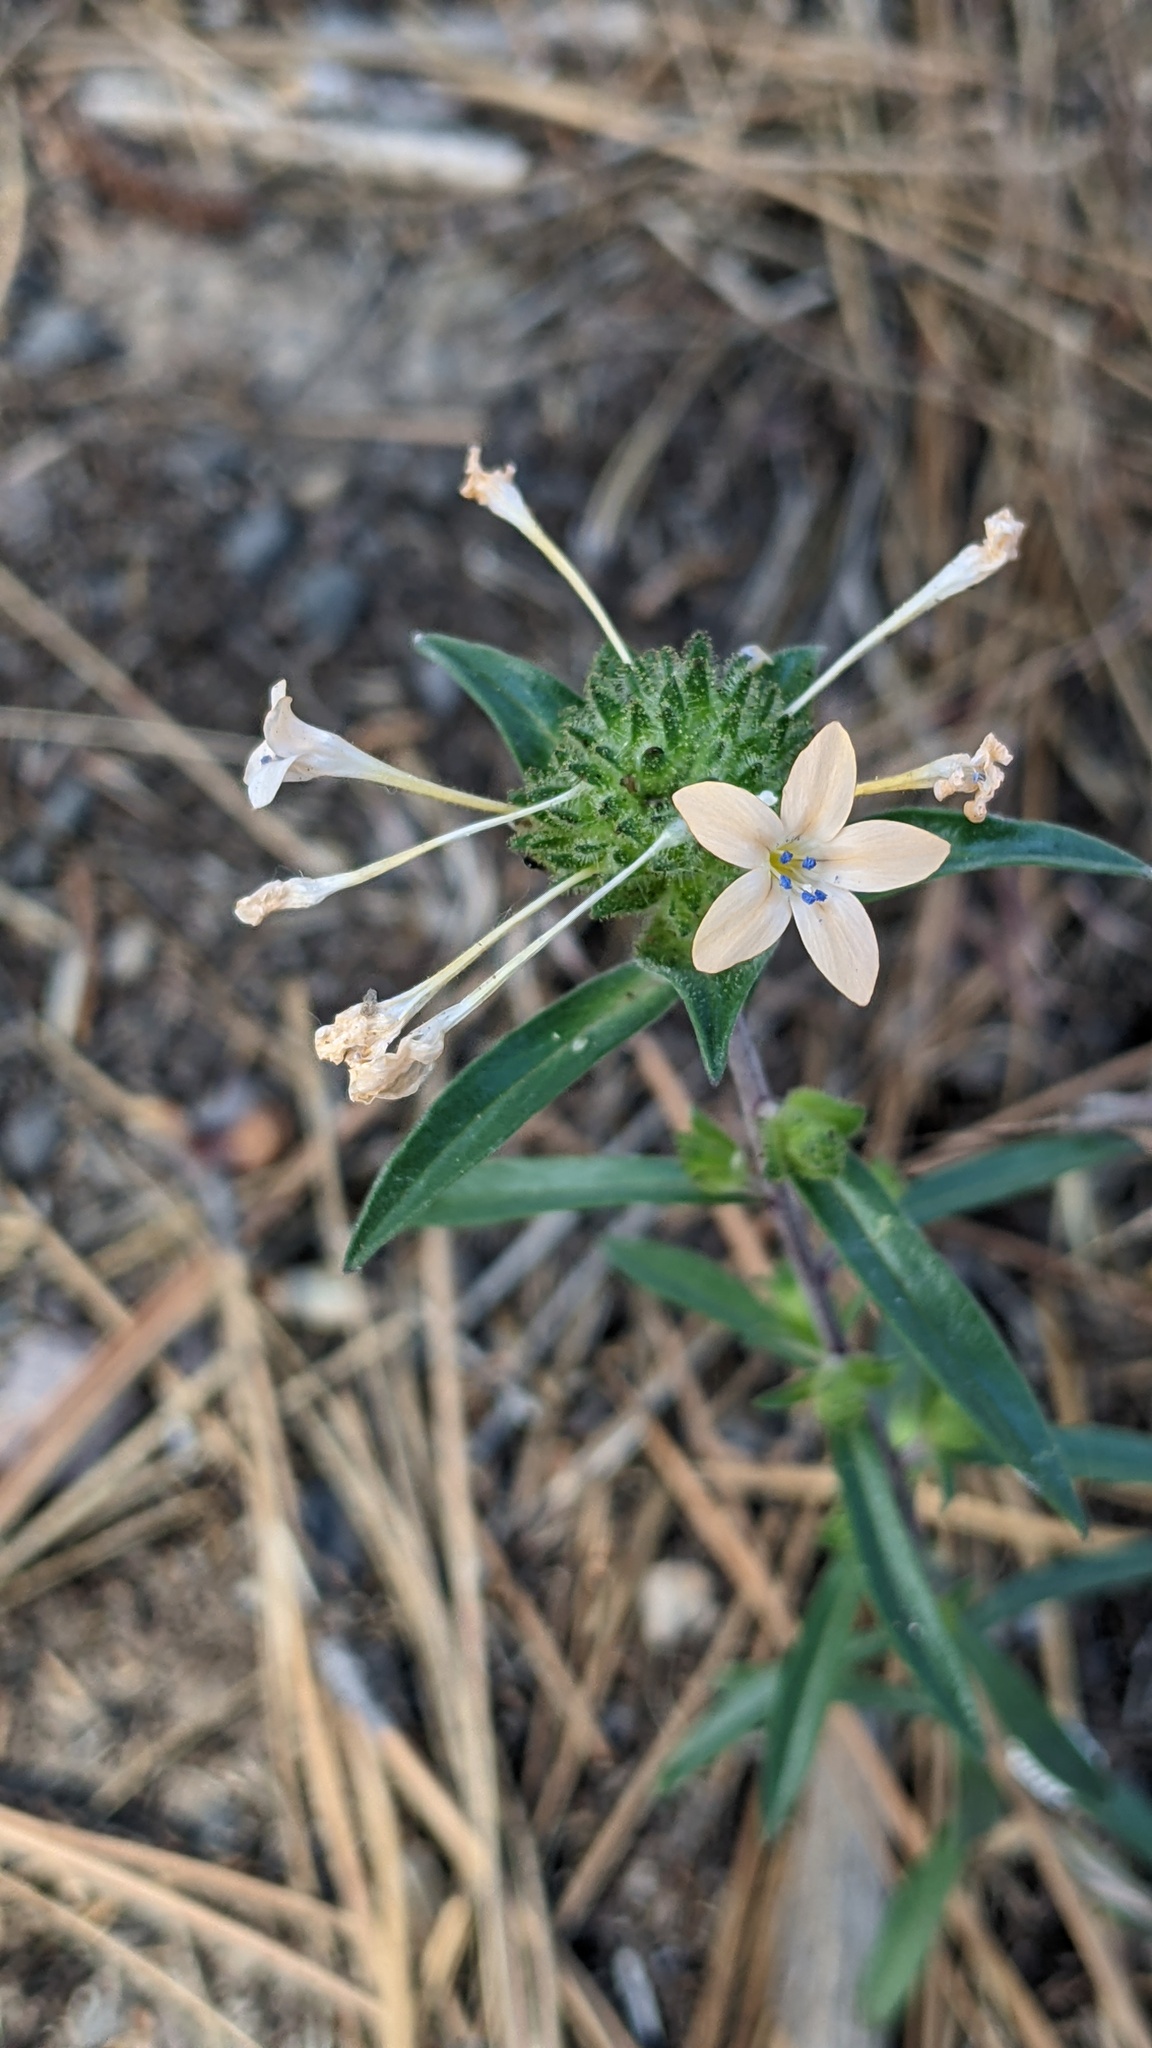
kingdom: Plantae
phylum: Tracheophyta
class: Magnoliopsida
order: Ericales
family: Polemoniaceae
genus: Collomia
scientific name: Collomia grandiflora
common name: California strawflower
